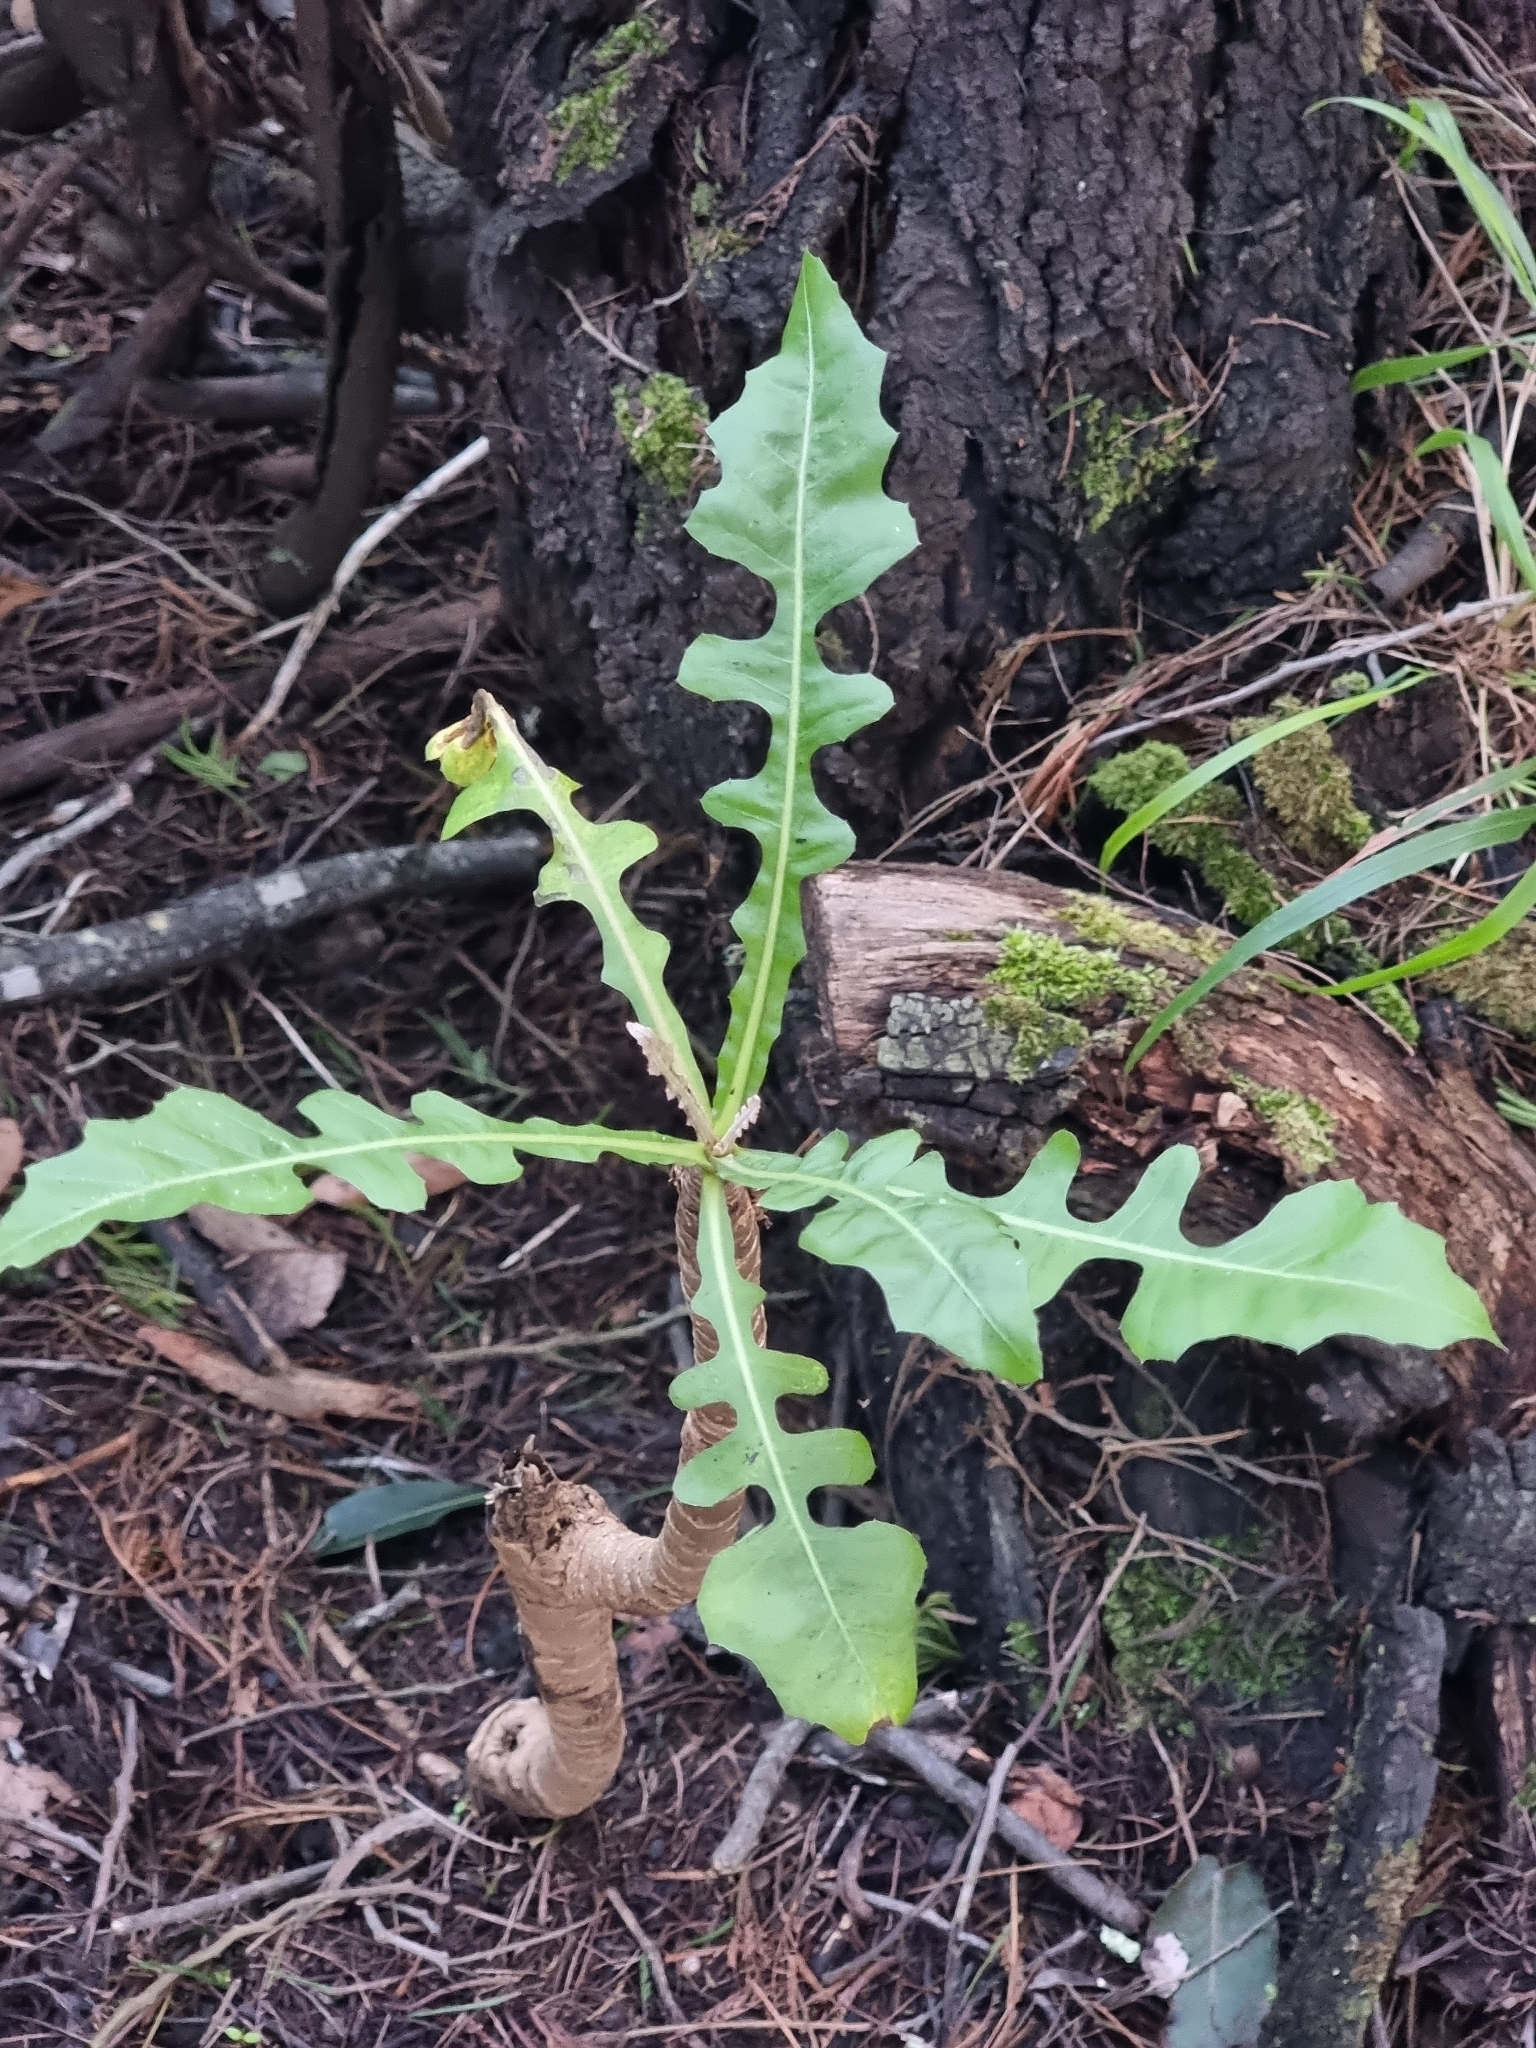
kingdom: Plantae
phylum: Tracheophyta
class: Magnoliopsida
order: Asterales
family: Asteraceae
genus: Sonchus
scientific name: Sonchus fruticosus
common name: Shrubby sow-thistle
